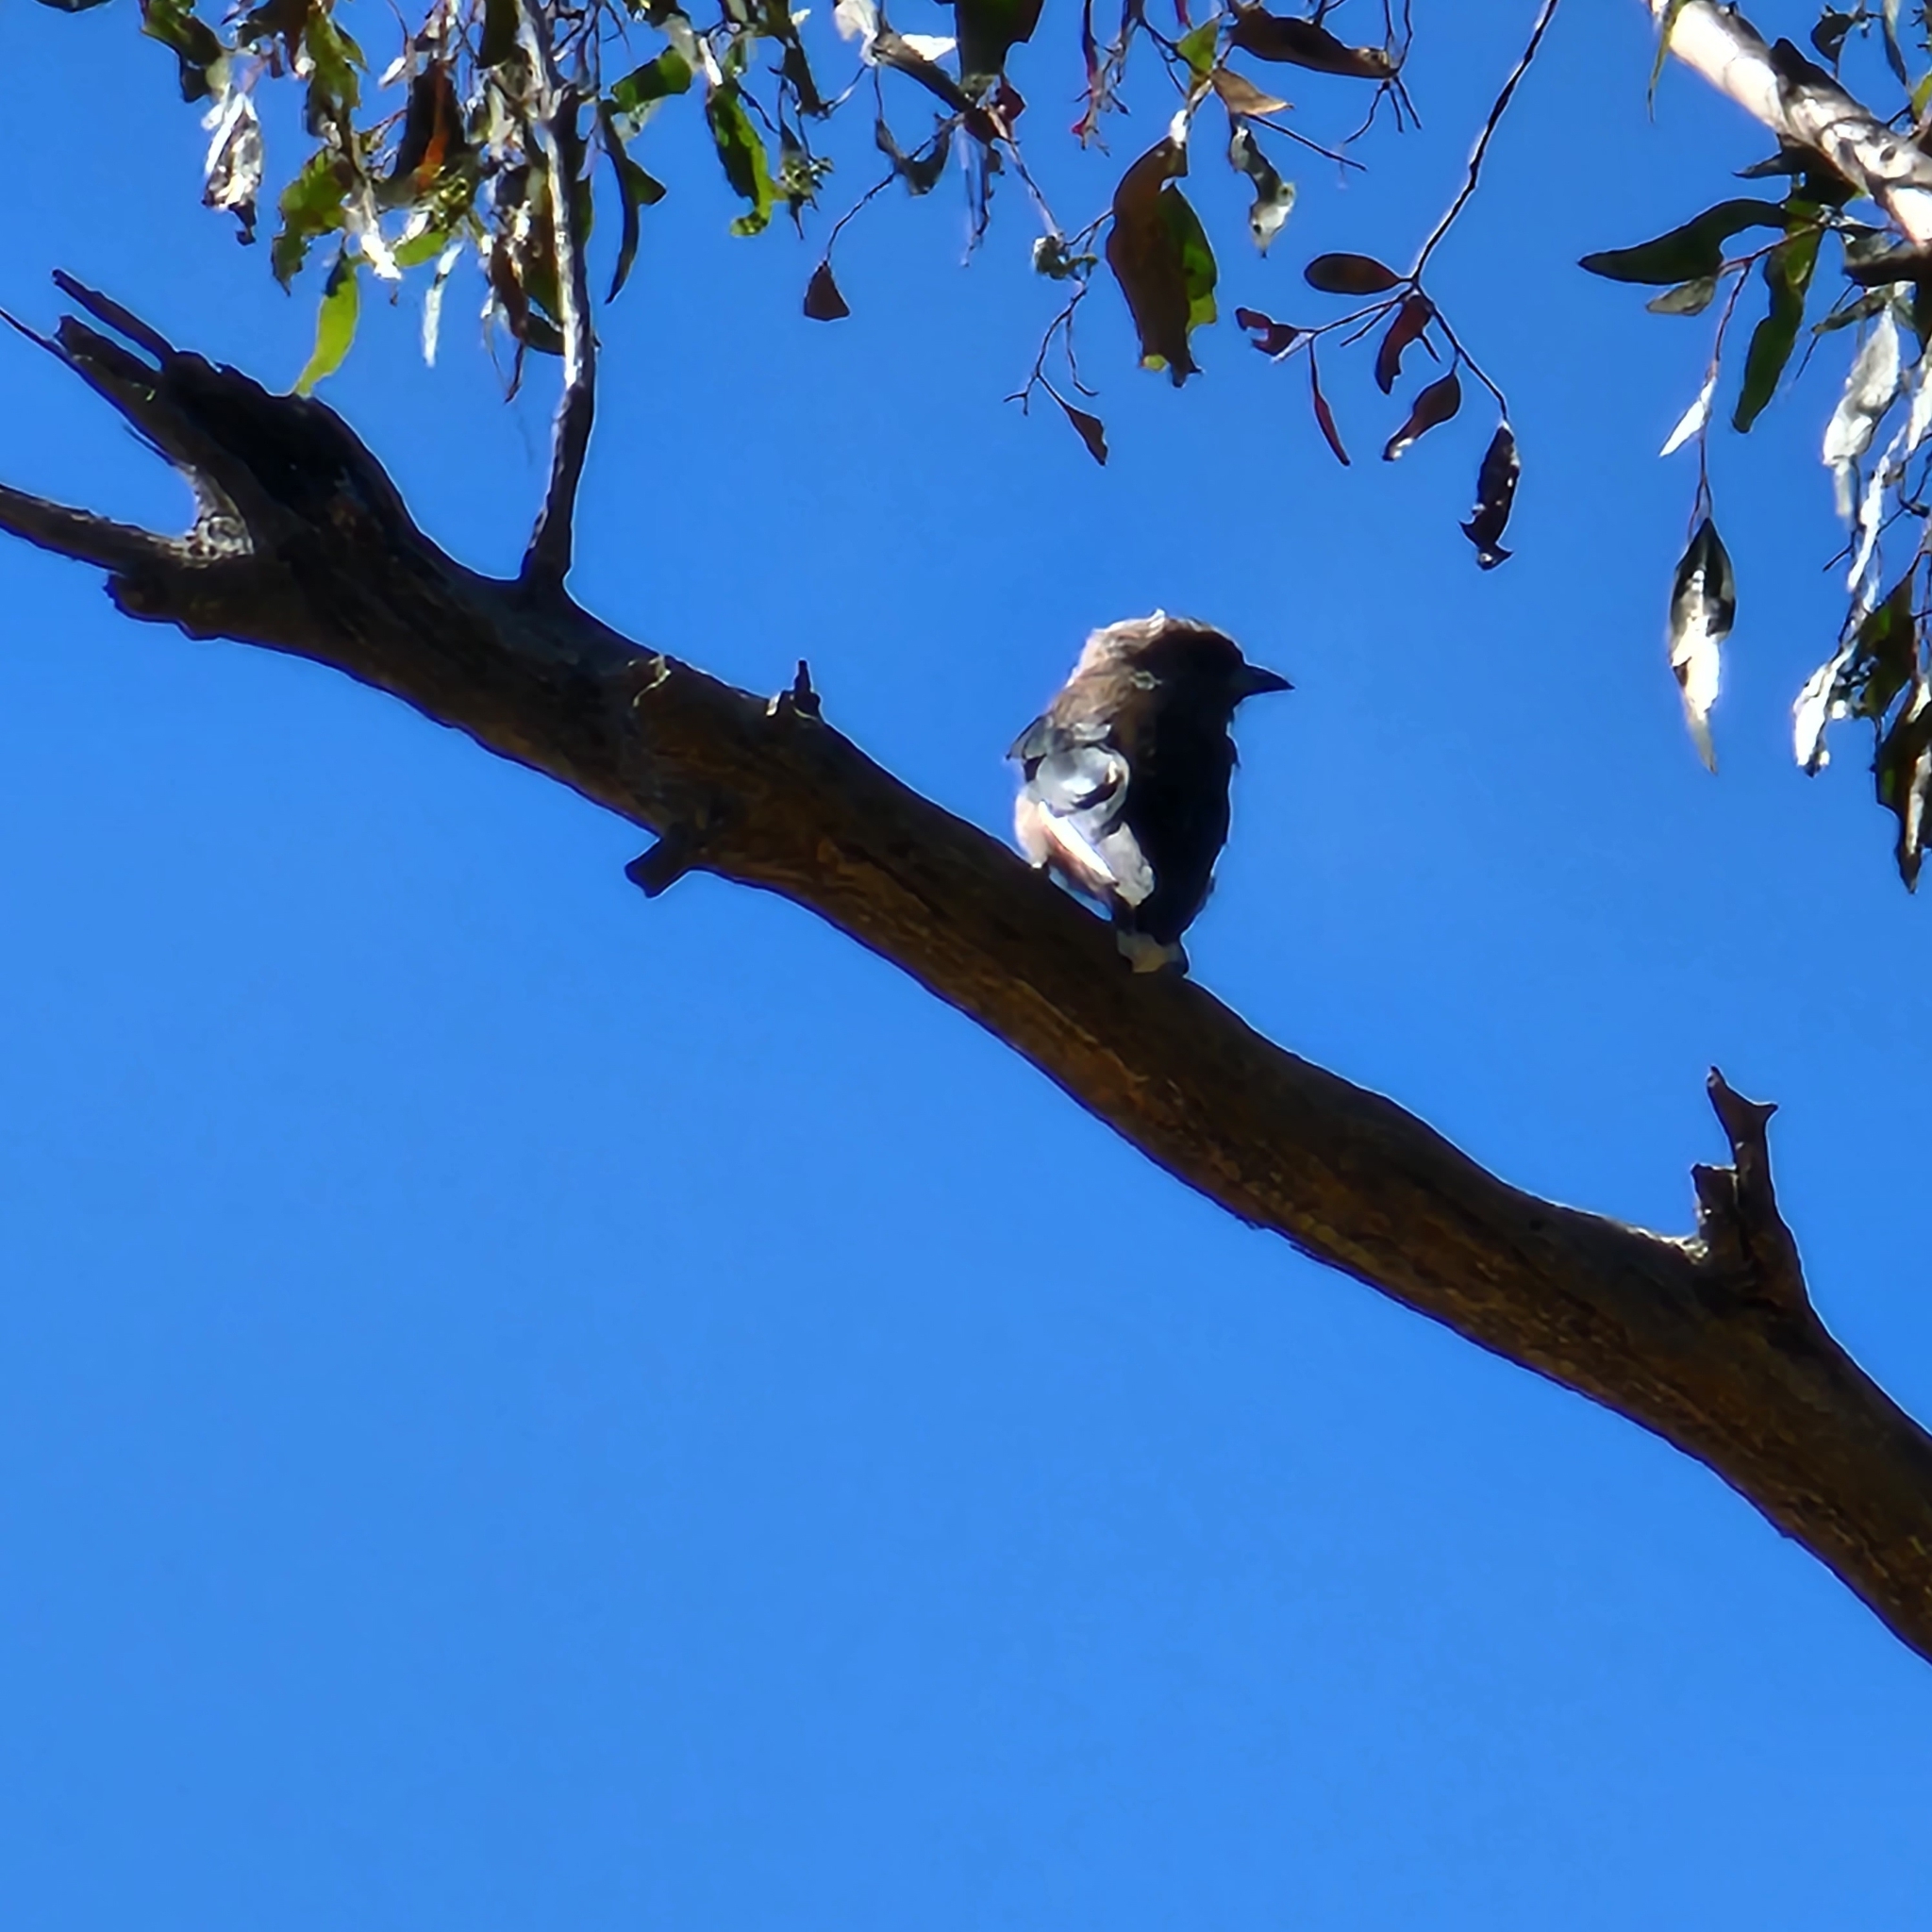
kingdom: Animalia
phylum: Chordata
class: Aves
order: Passeriformes
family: Hirundinidae
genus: Petrochelidon
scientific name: Petrochelidon nigricans
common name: Tree martin
